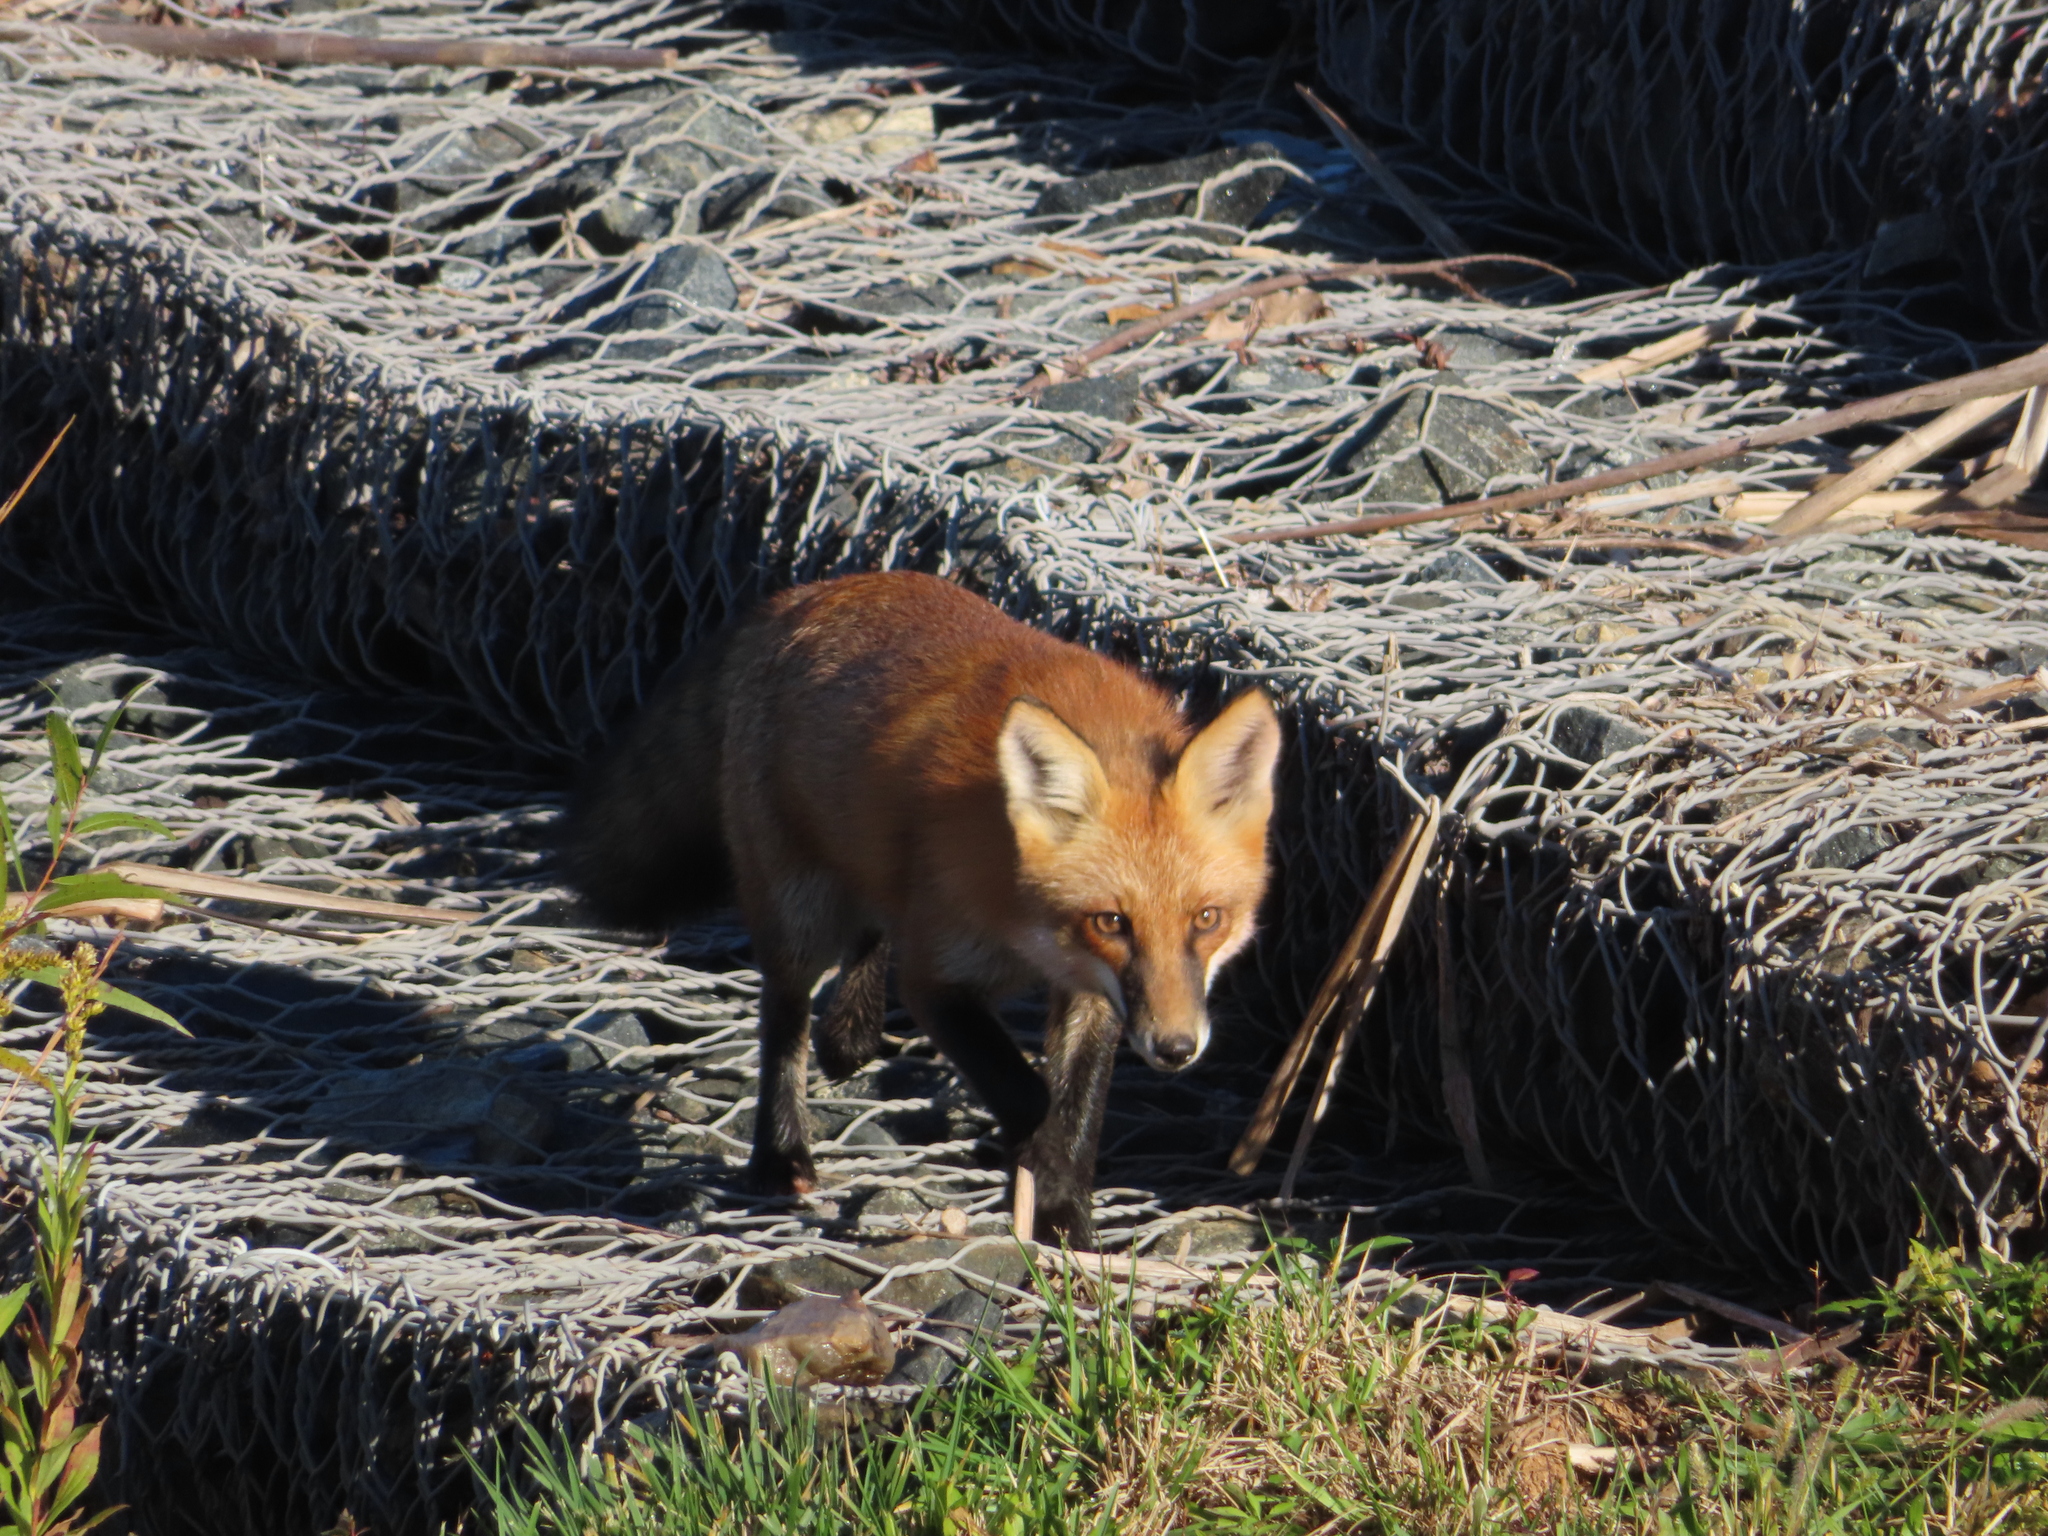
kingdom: Animalia
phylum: Chordata
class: Mammalia
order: Carnivora
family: Canidae
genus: Vulpes
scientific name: Vulpes vulpes
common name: Red fox
